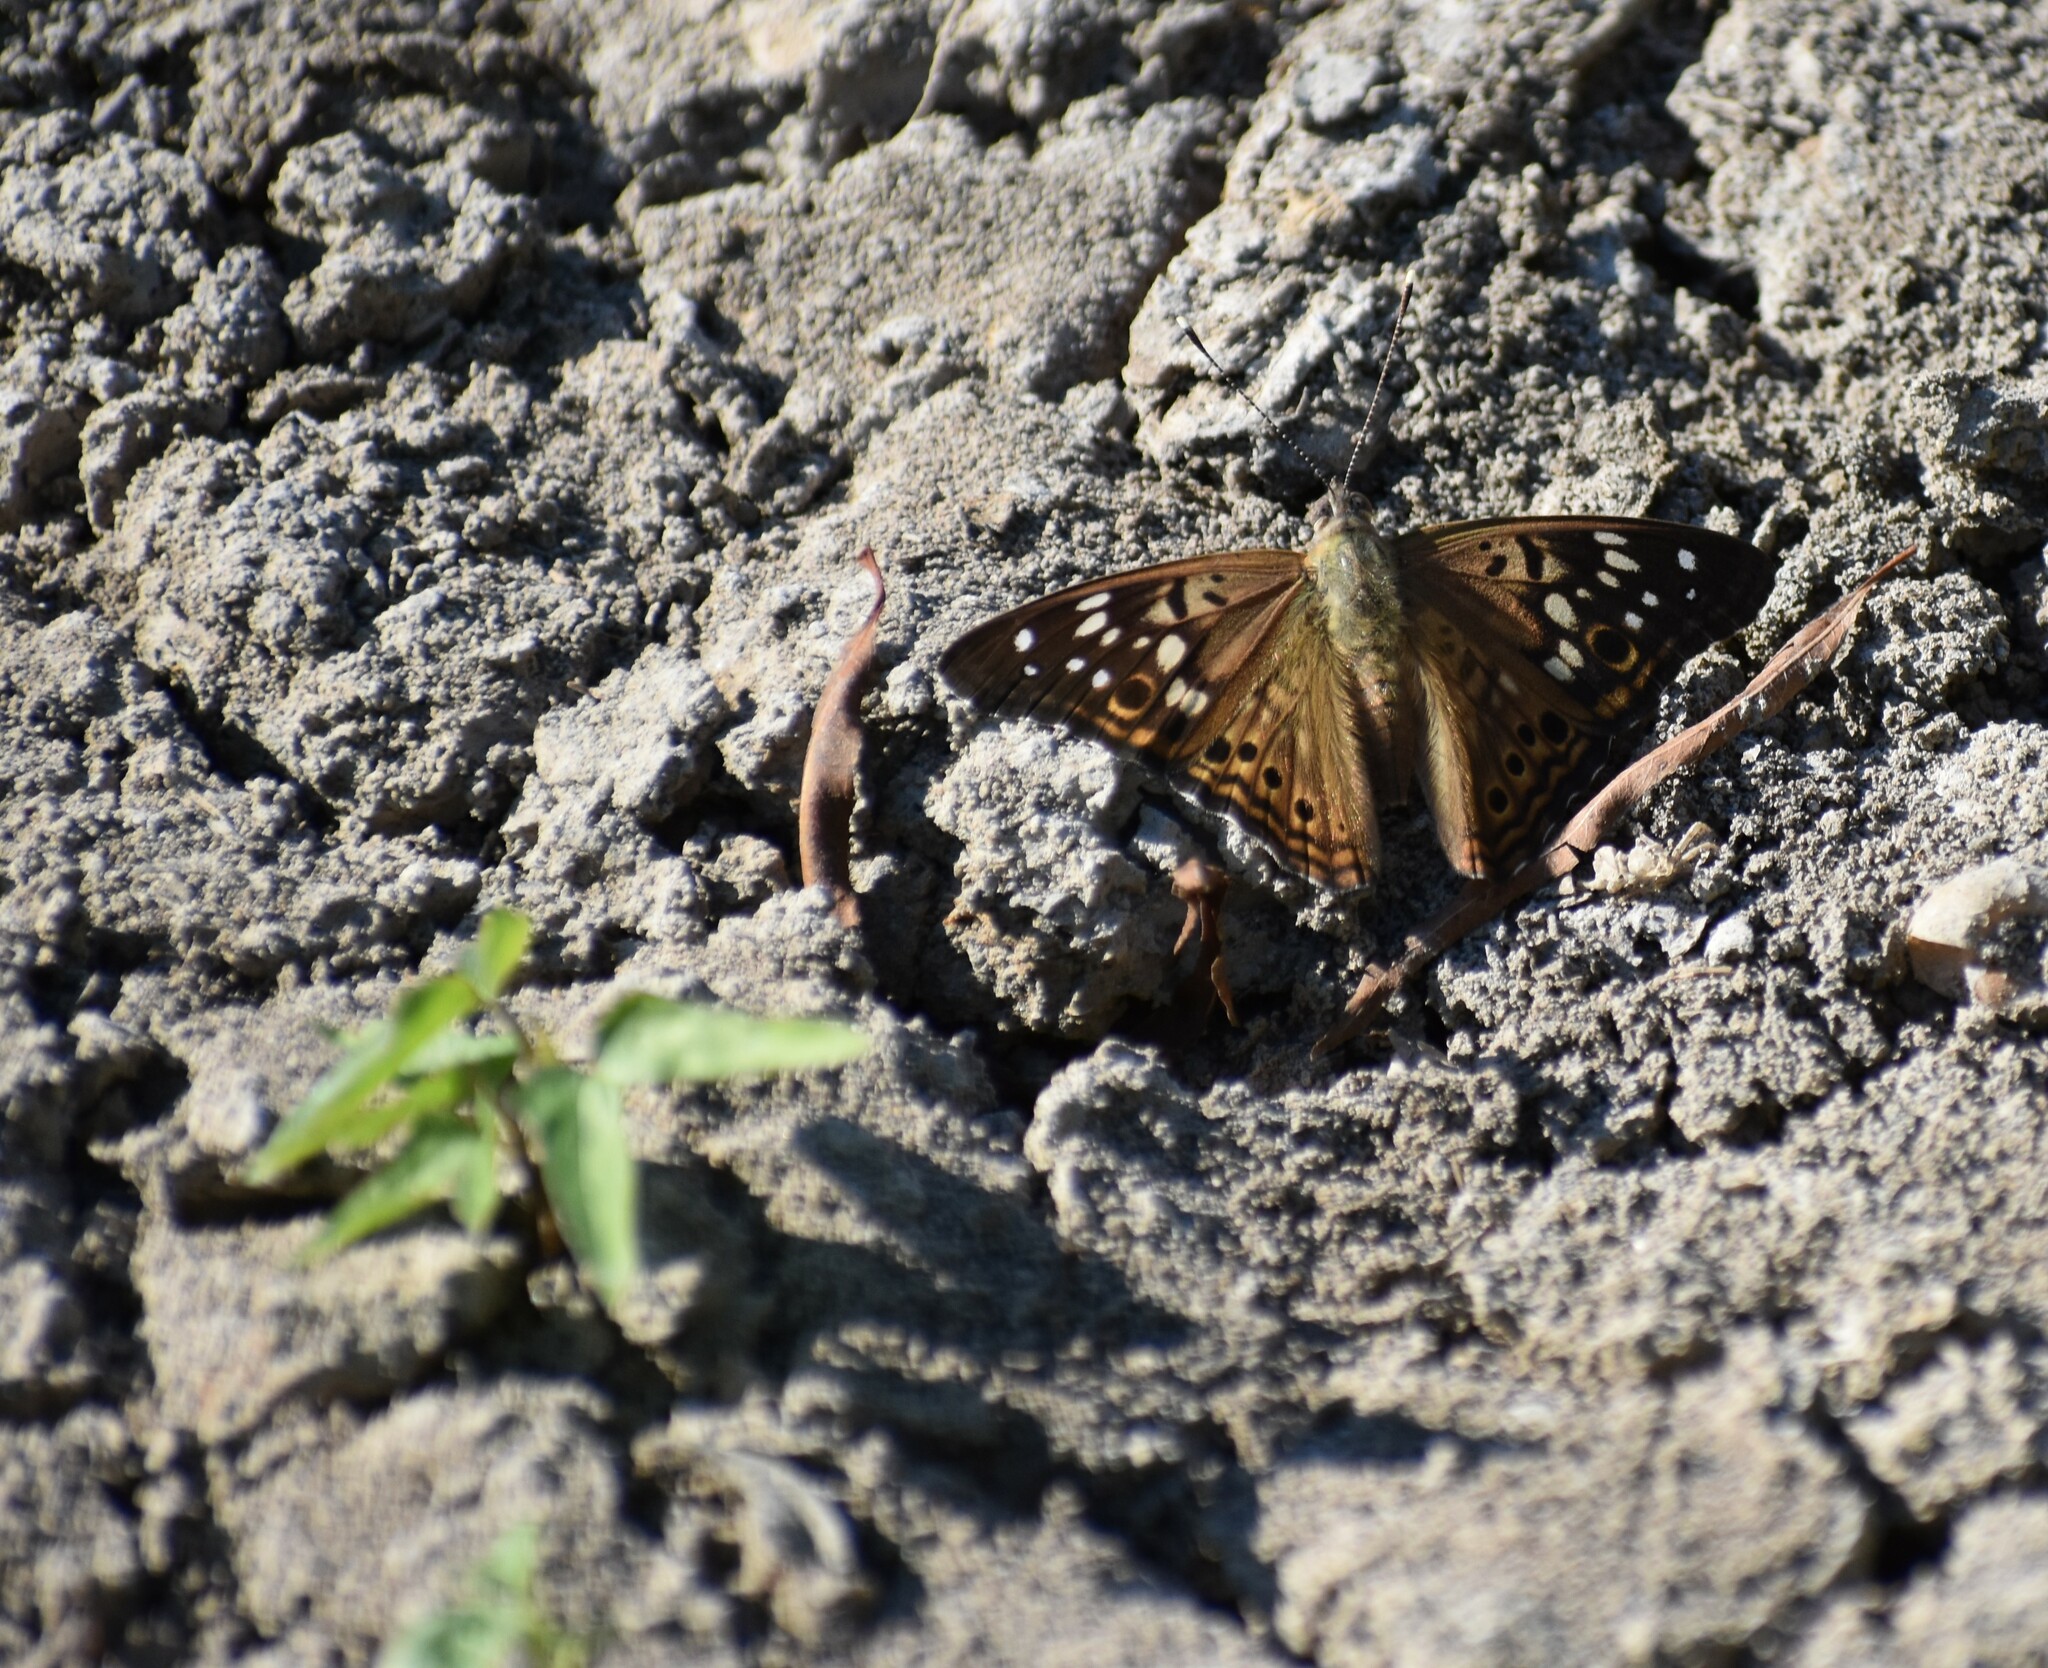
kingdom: Animalia
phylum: Arthropoda
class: Insecta
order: Lepidoptera
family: Nymphalidae
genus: Asterocampa
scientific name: Asterocampa celtis
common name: Hackberry emperor
